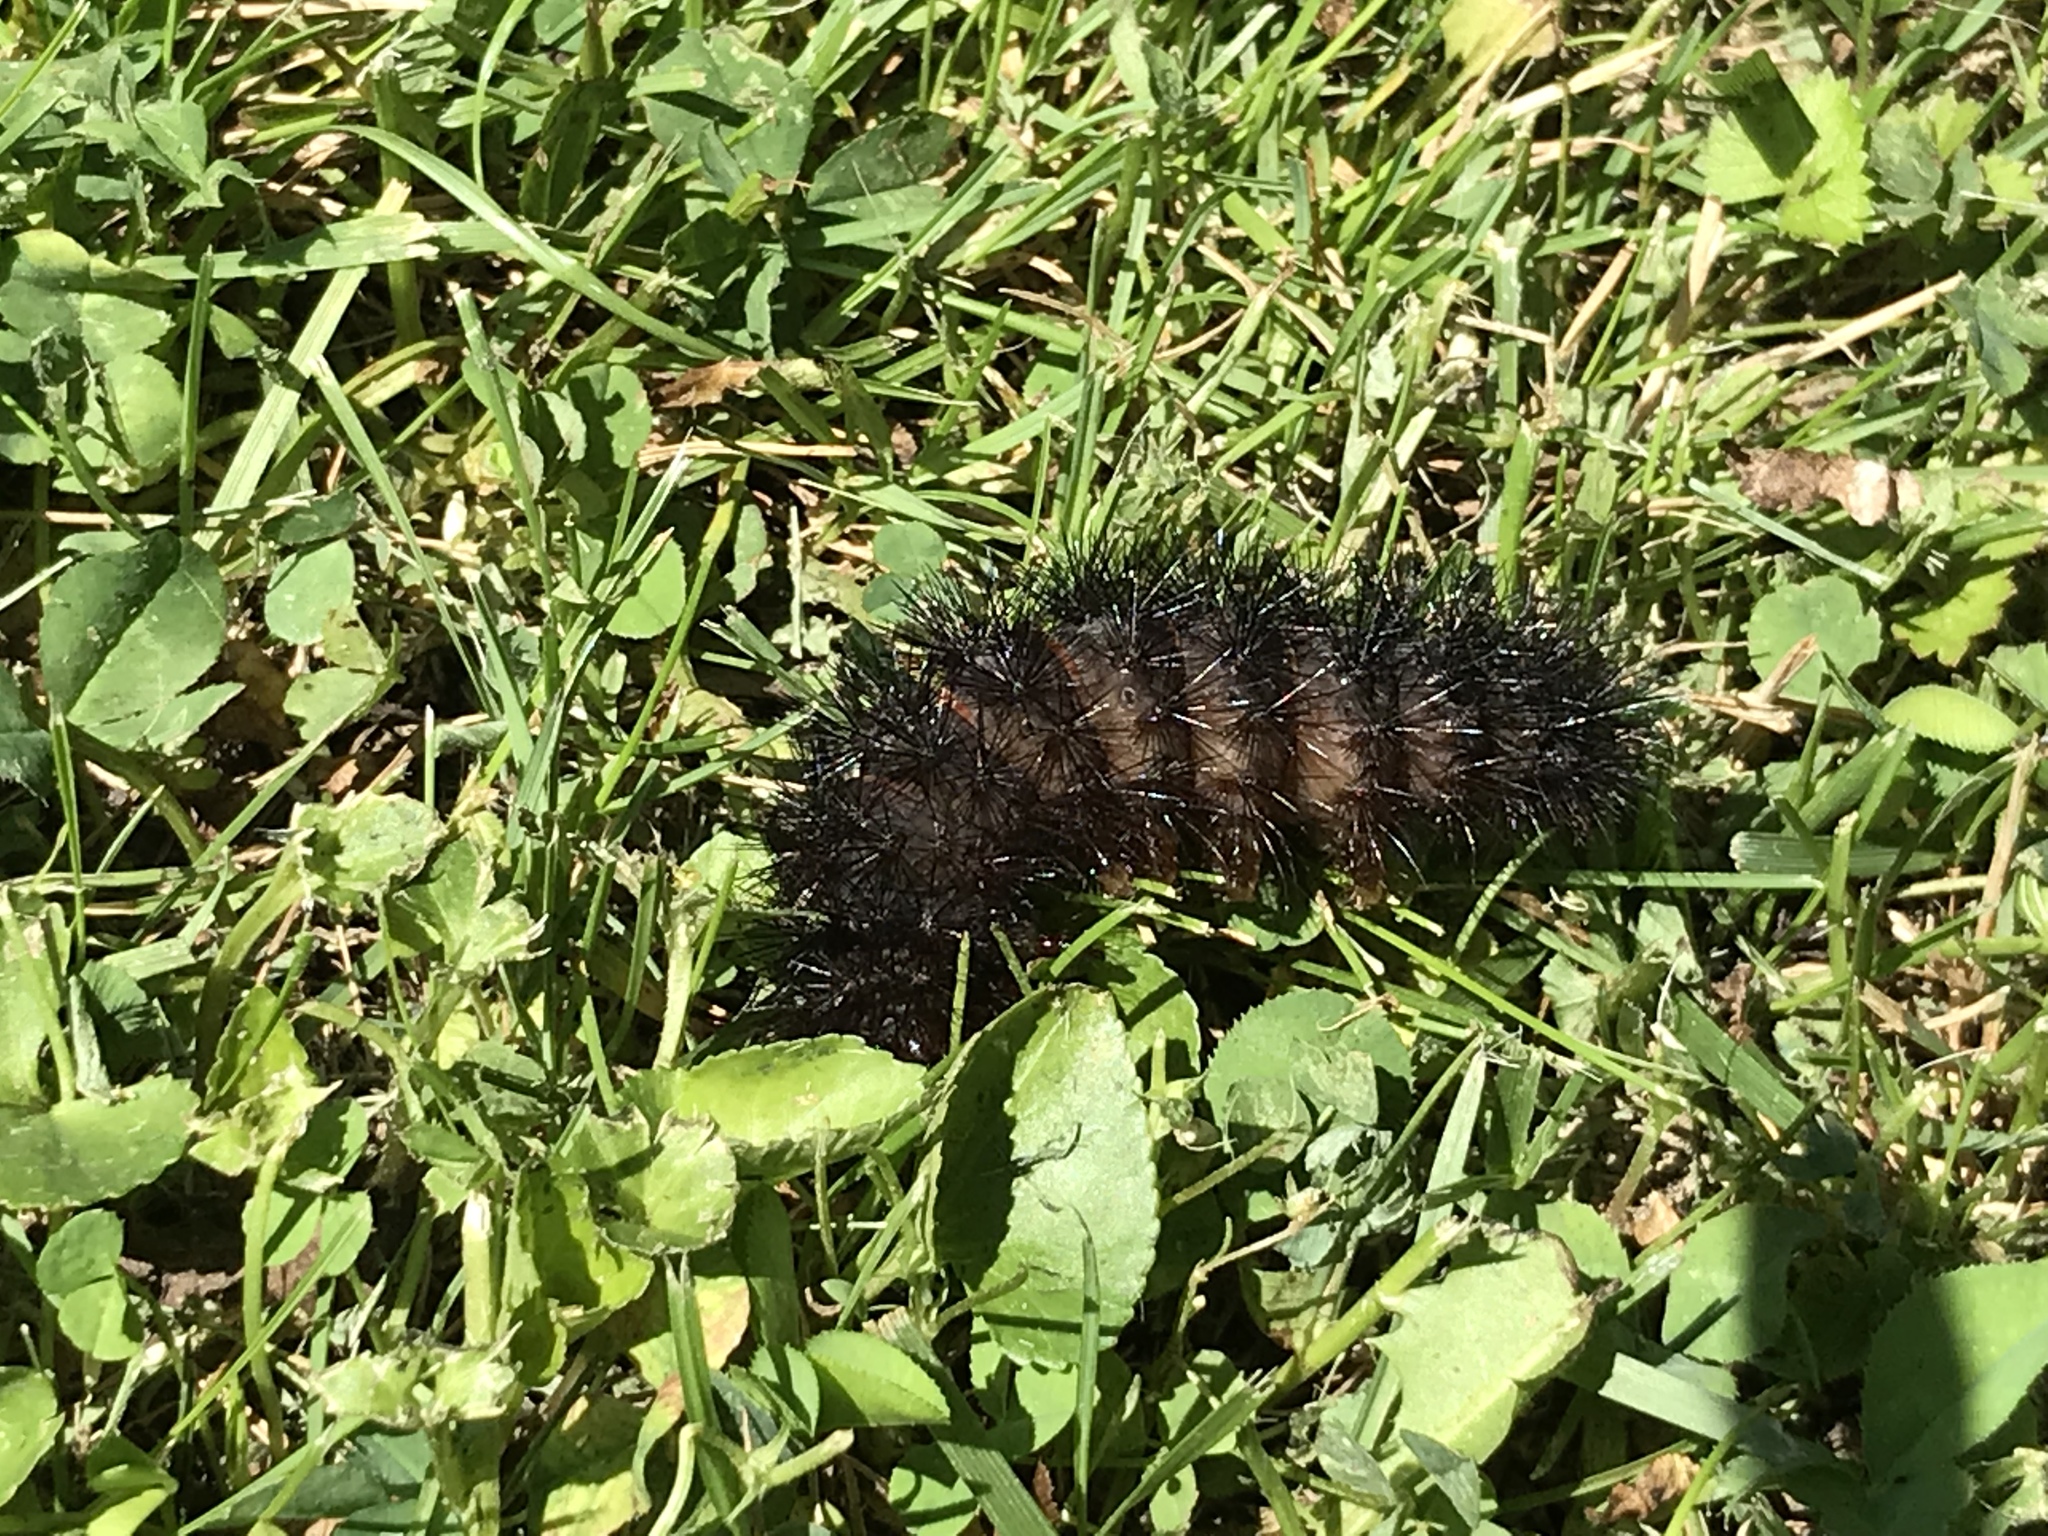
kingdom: Animalia
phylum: Arthropoda
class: Insecta
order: Lepidoptera
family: Erebidae
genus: Hypercompe
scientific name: Hypercompe scribonia
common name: Giant leopard moth
